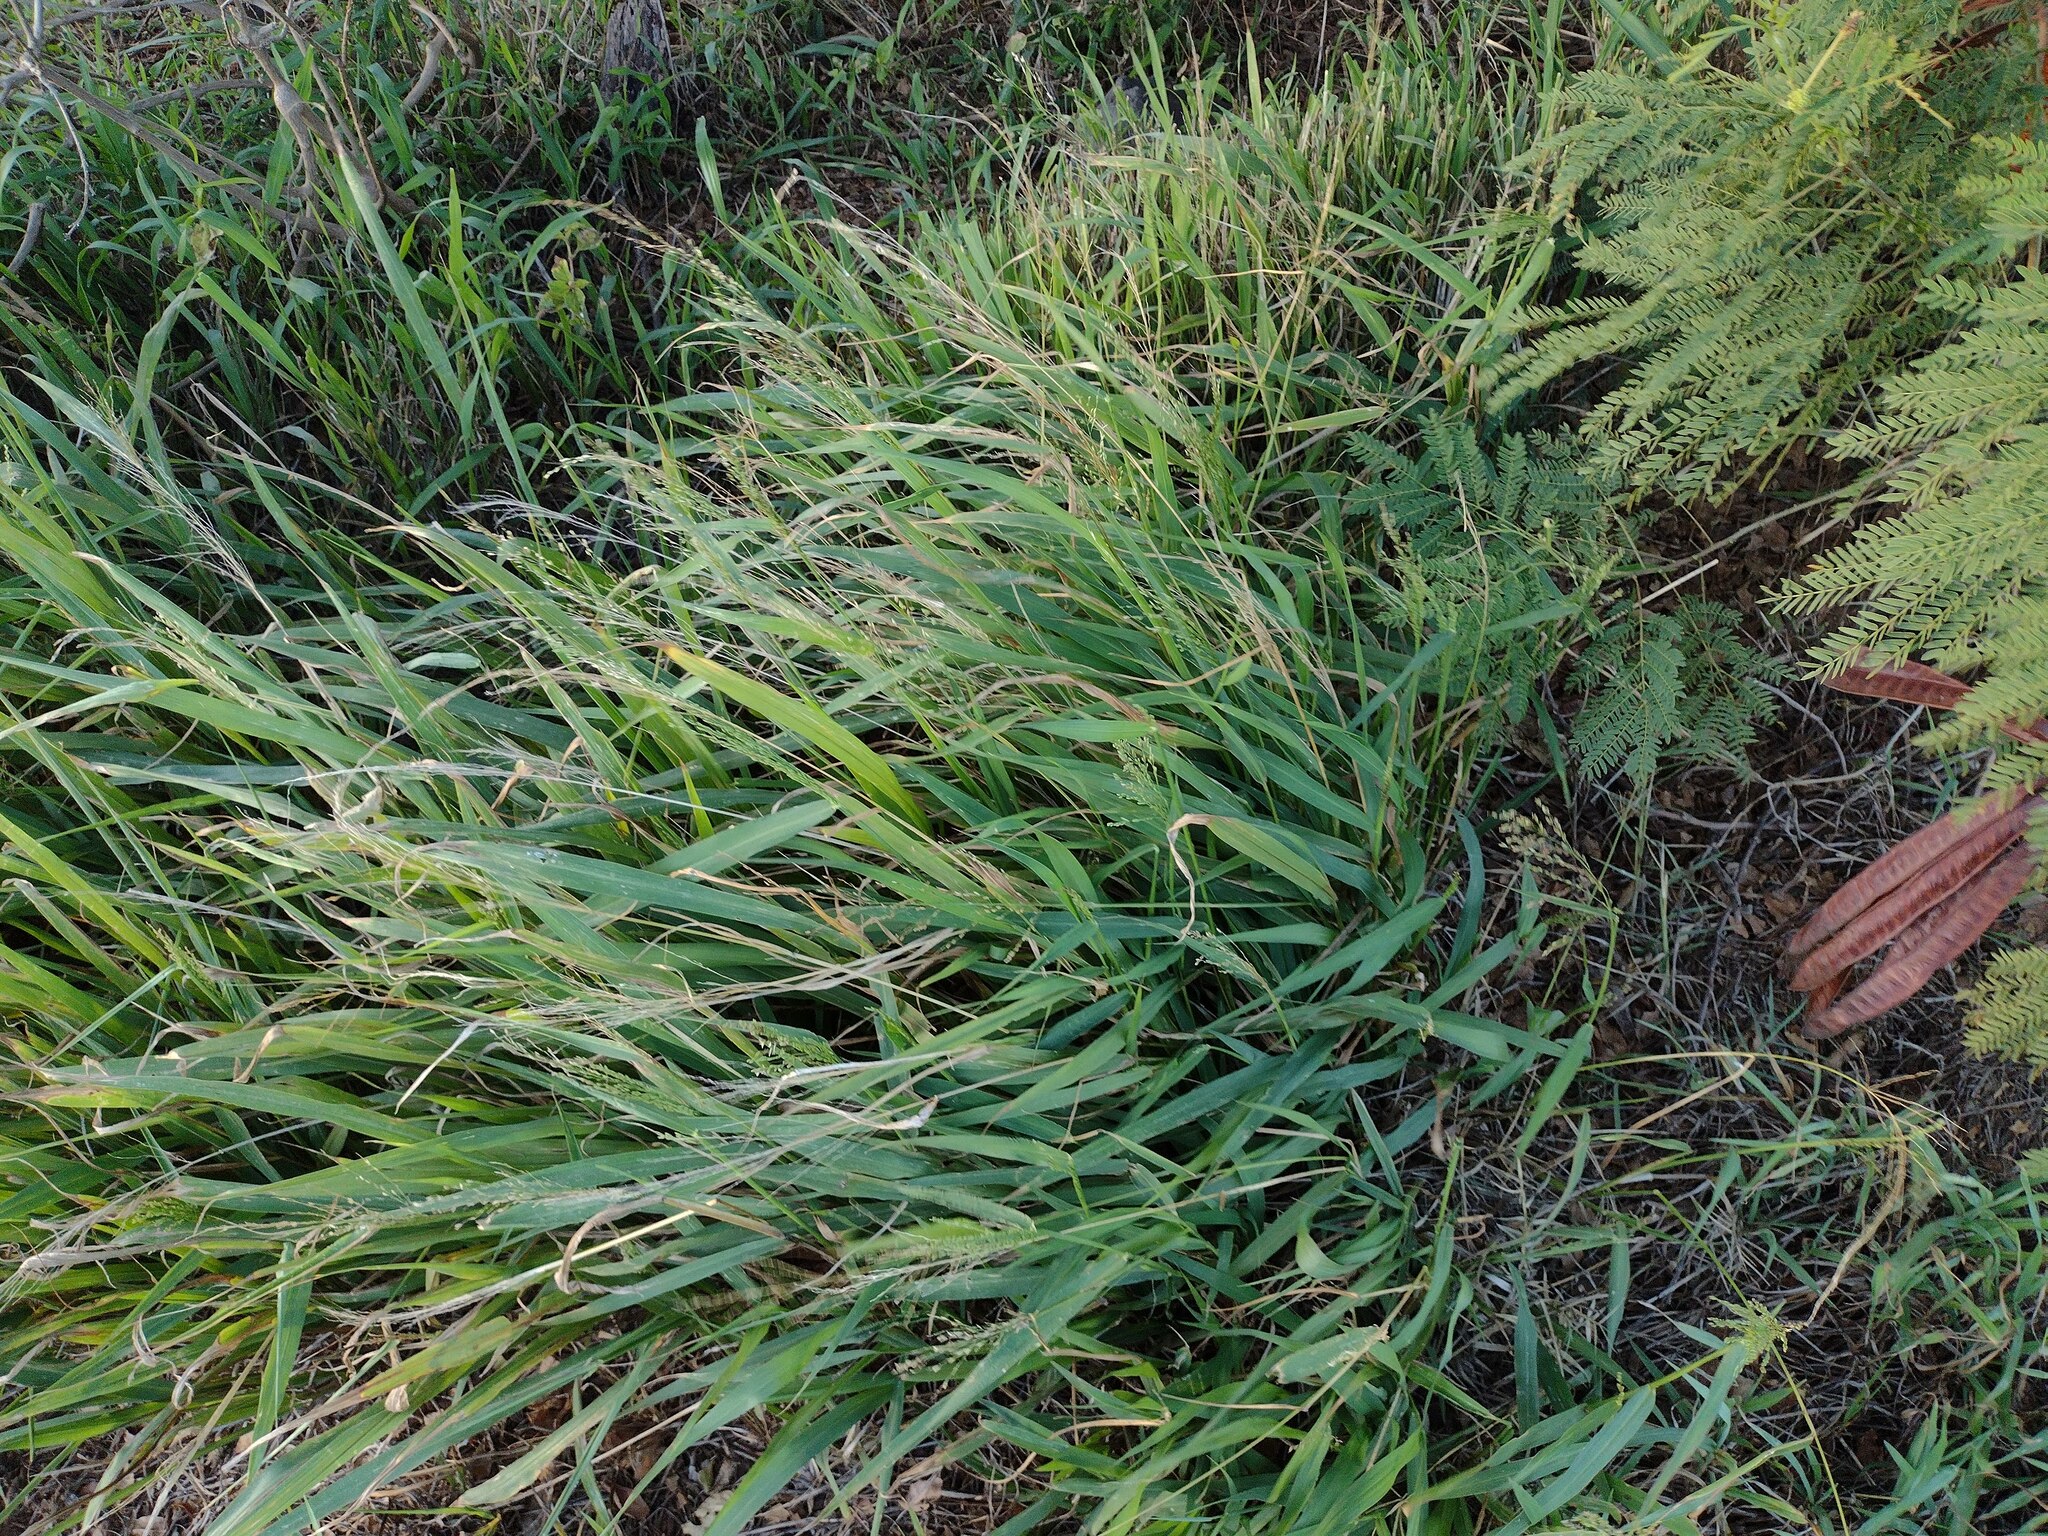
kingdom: Plantae
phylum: Tracheophyta
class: Liliopsida
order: Poales
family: Poaceae
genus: Megathyrsus
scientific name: Megathyrsus maximus
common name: Guineagrass
